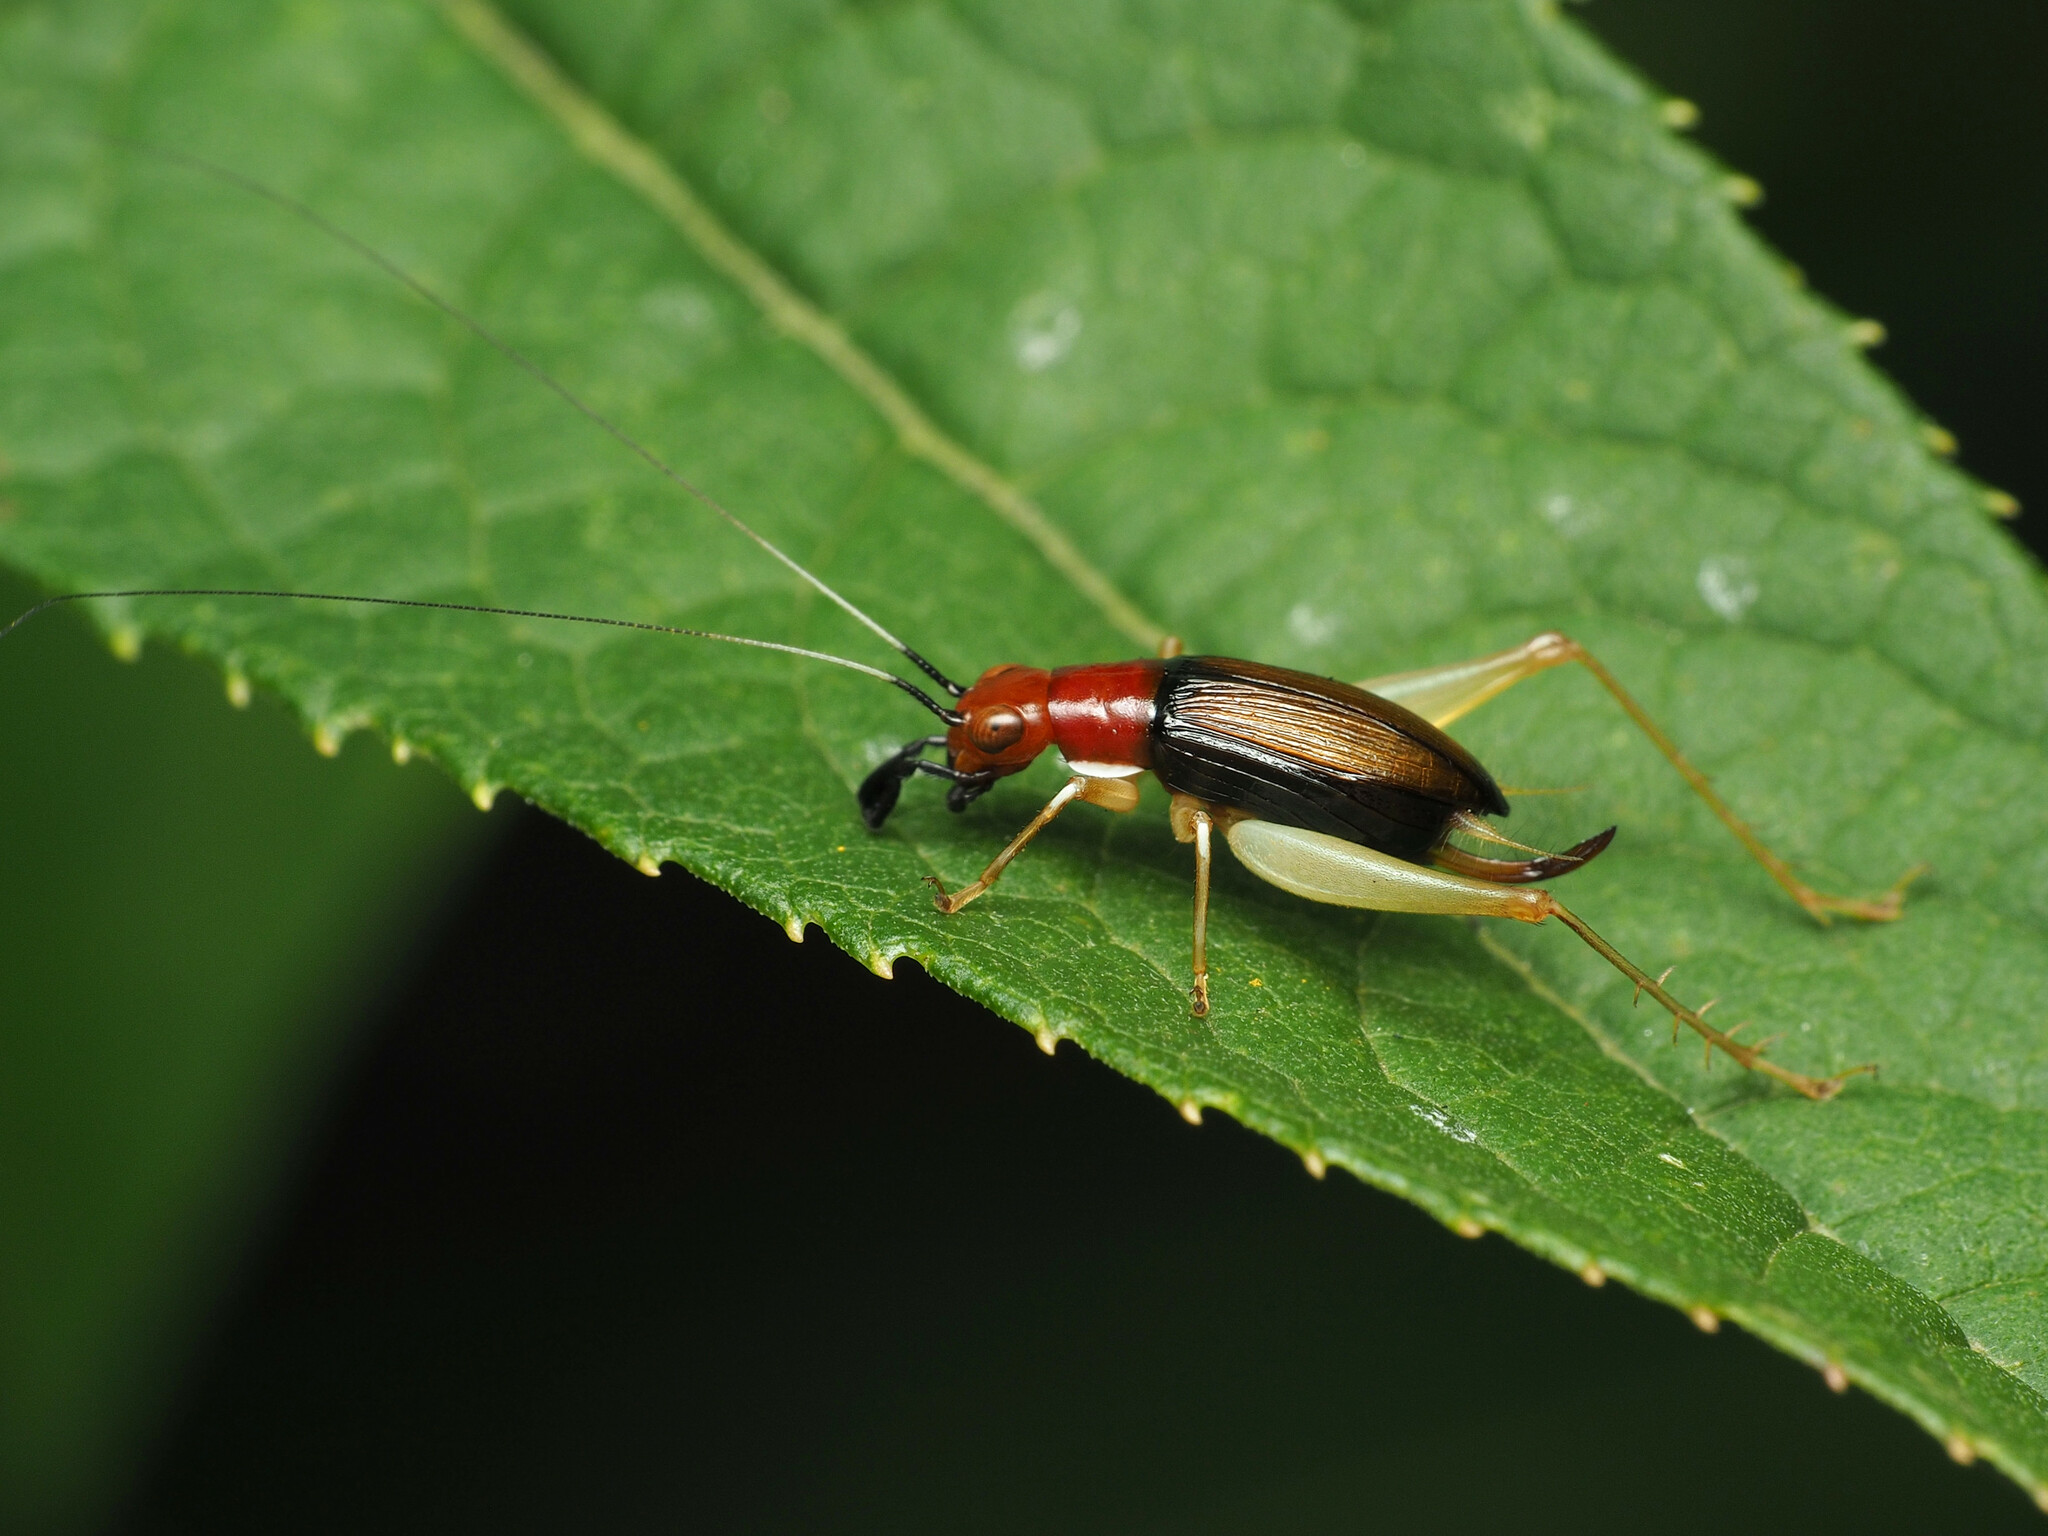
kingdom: Animalia
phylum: Arthropoda
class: Insecta
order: Orthoptera
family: Trigonidiidae
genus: Phyllopalpus
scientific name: Phyllopalpus pulchellus
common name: Handsome trig
